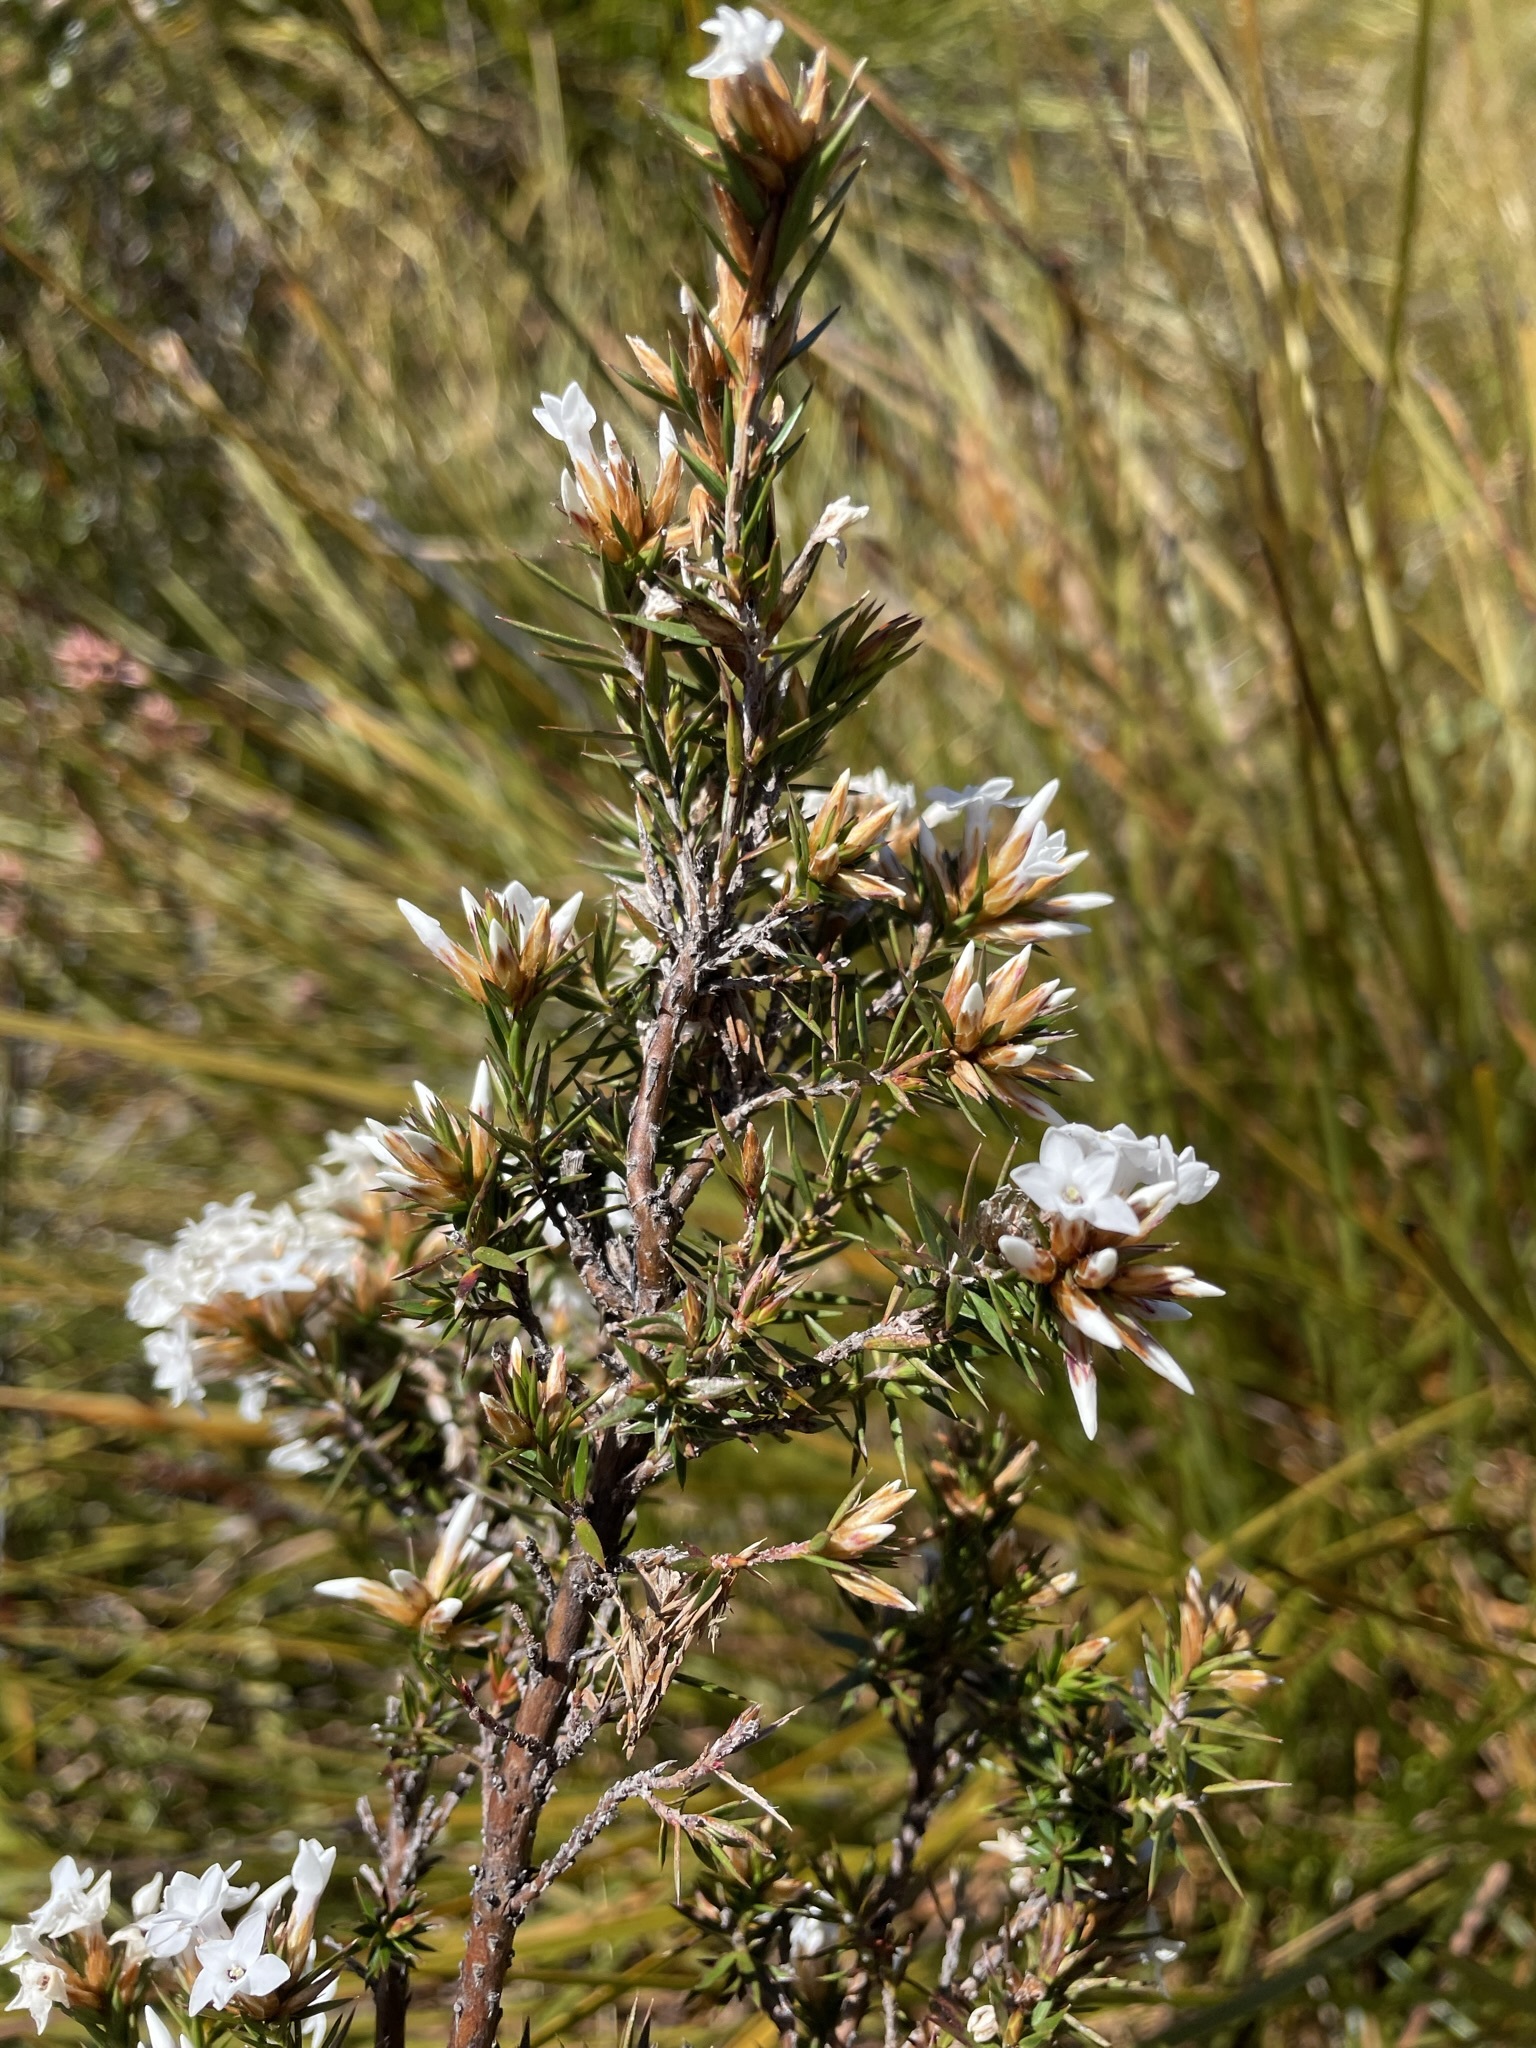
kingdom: Plantae
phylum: Tracheophyta
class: Magnoliopsida
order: Ericales
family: Ericaceae
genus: Epacris
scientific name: Epacris lanuginosa
